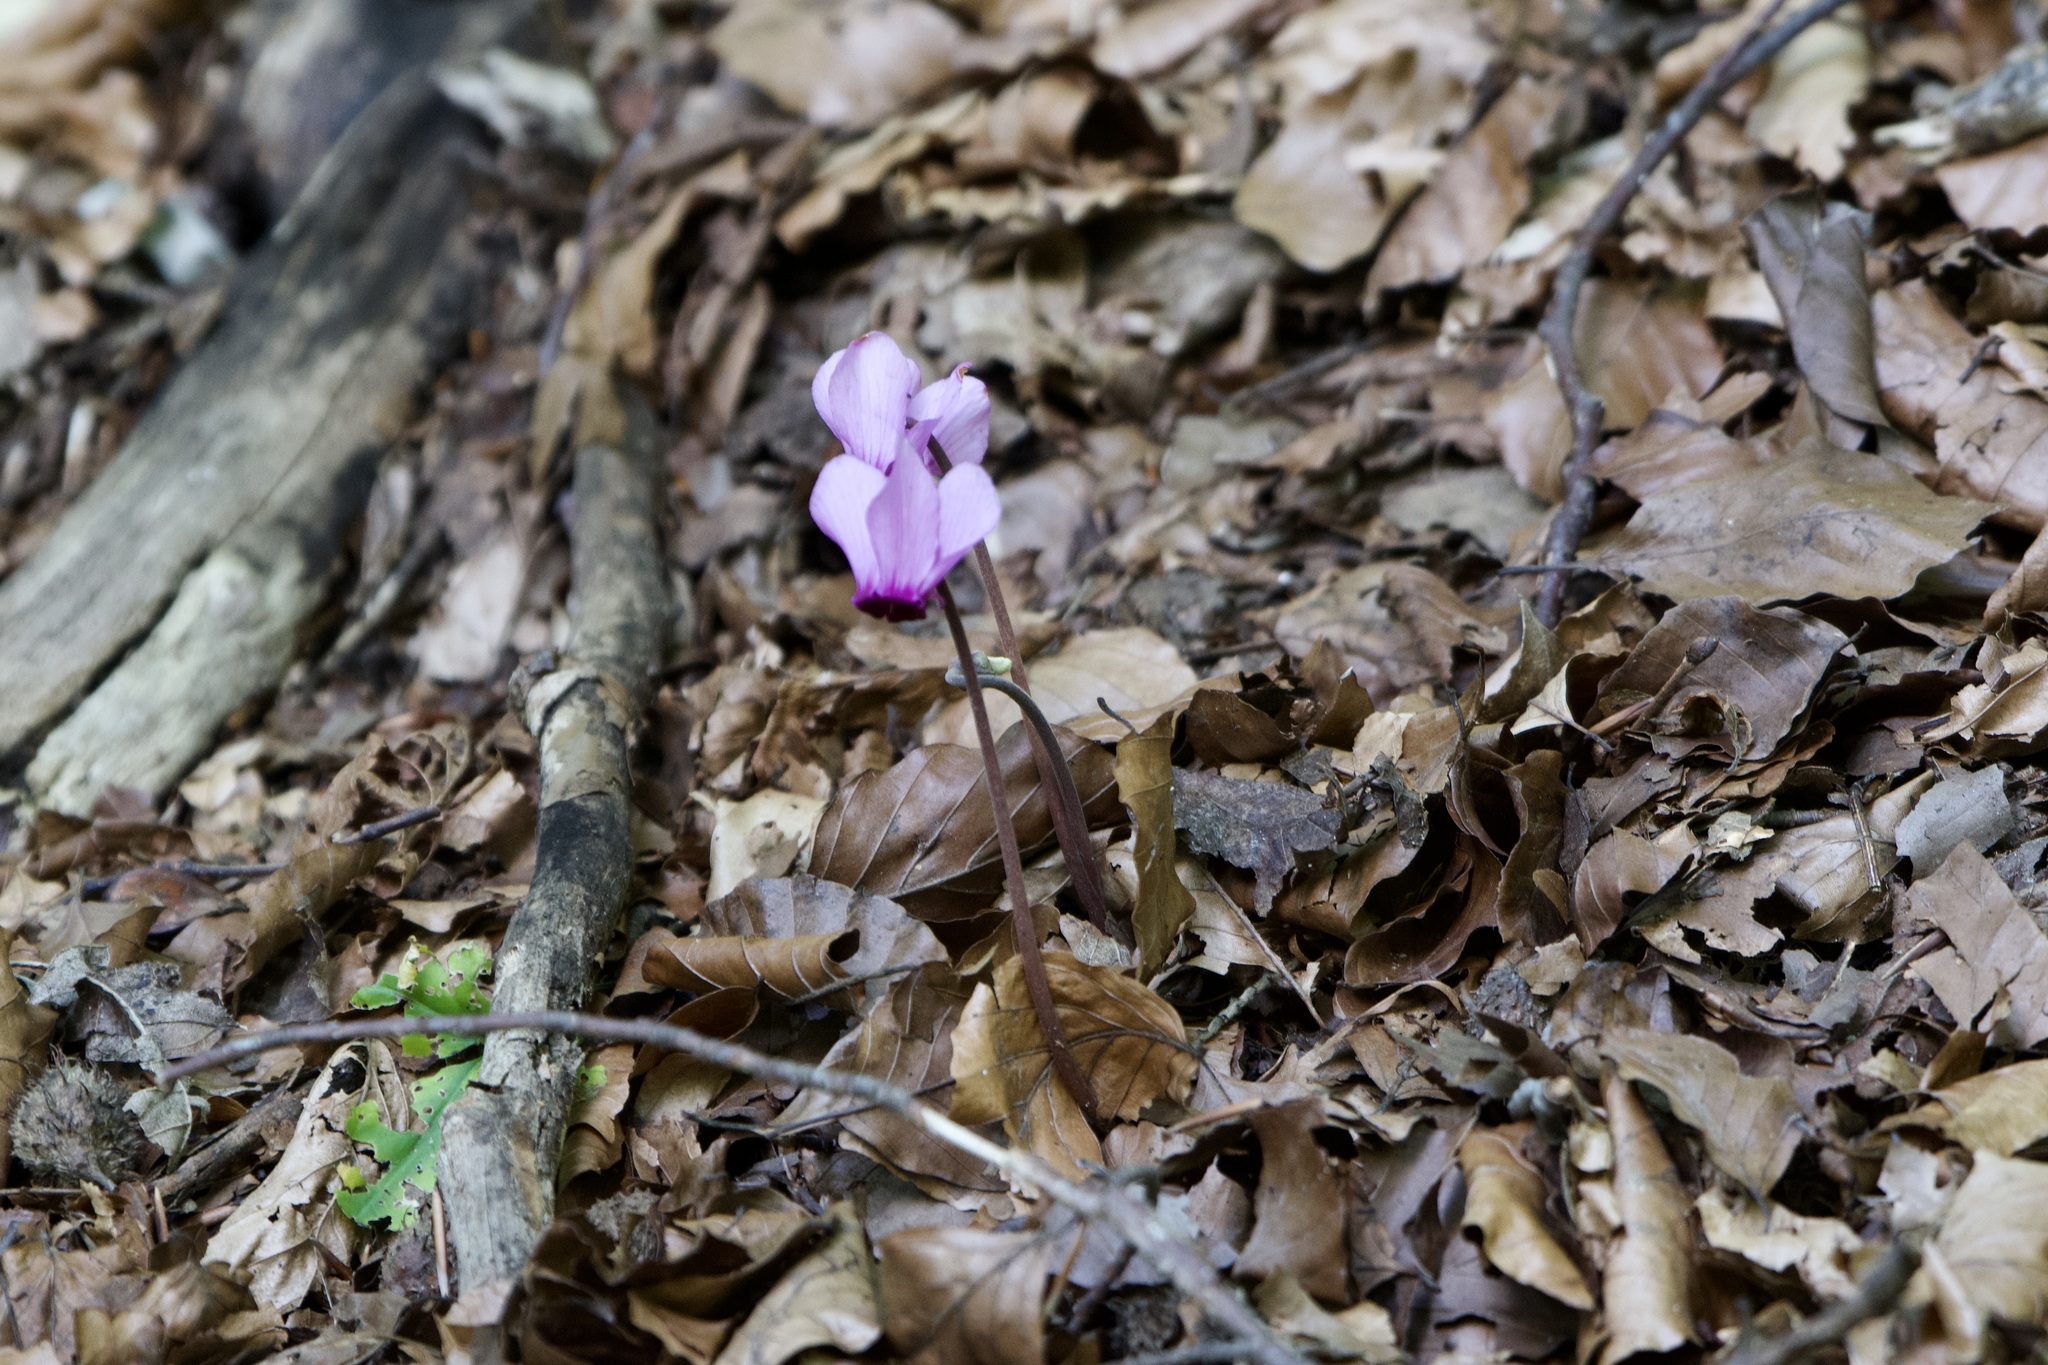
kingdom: Plantae
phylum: Tracheophyta
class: Magnoliopsida
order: Ericales
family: Primulaceae
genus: Cyclamen
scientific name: Cyclamen purpurascens
